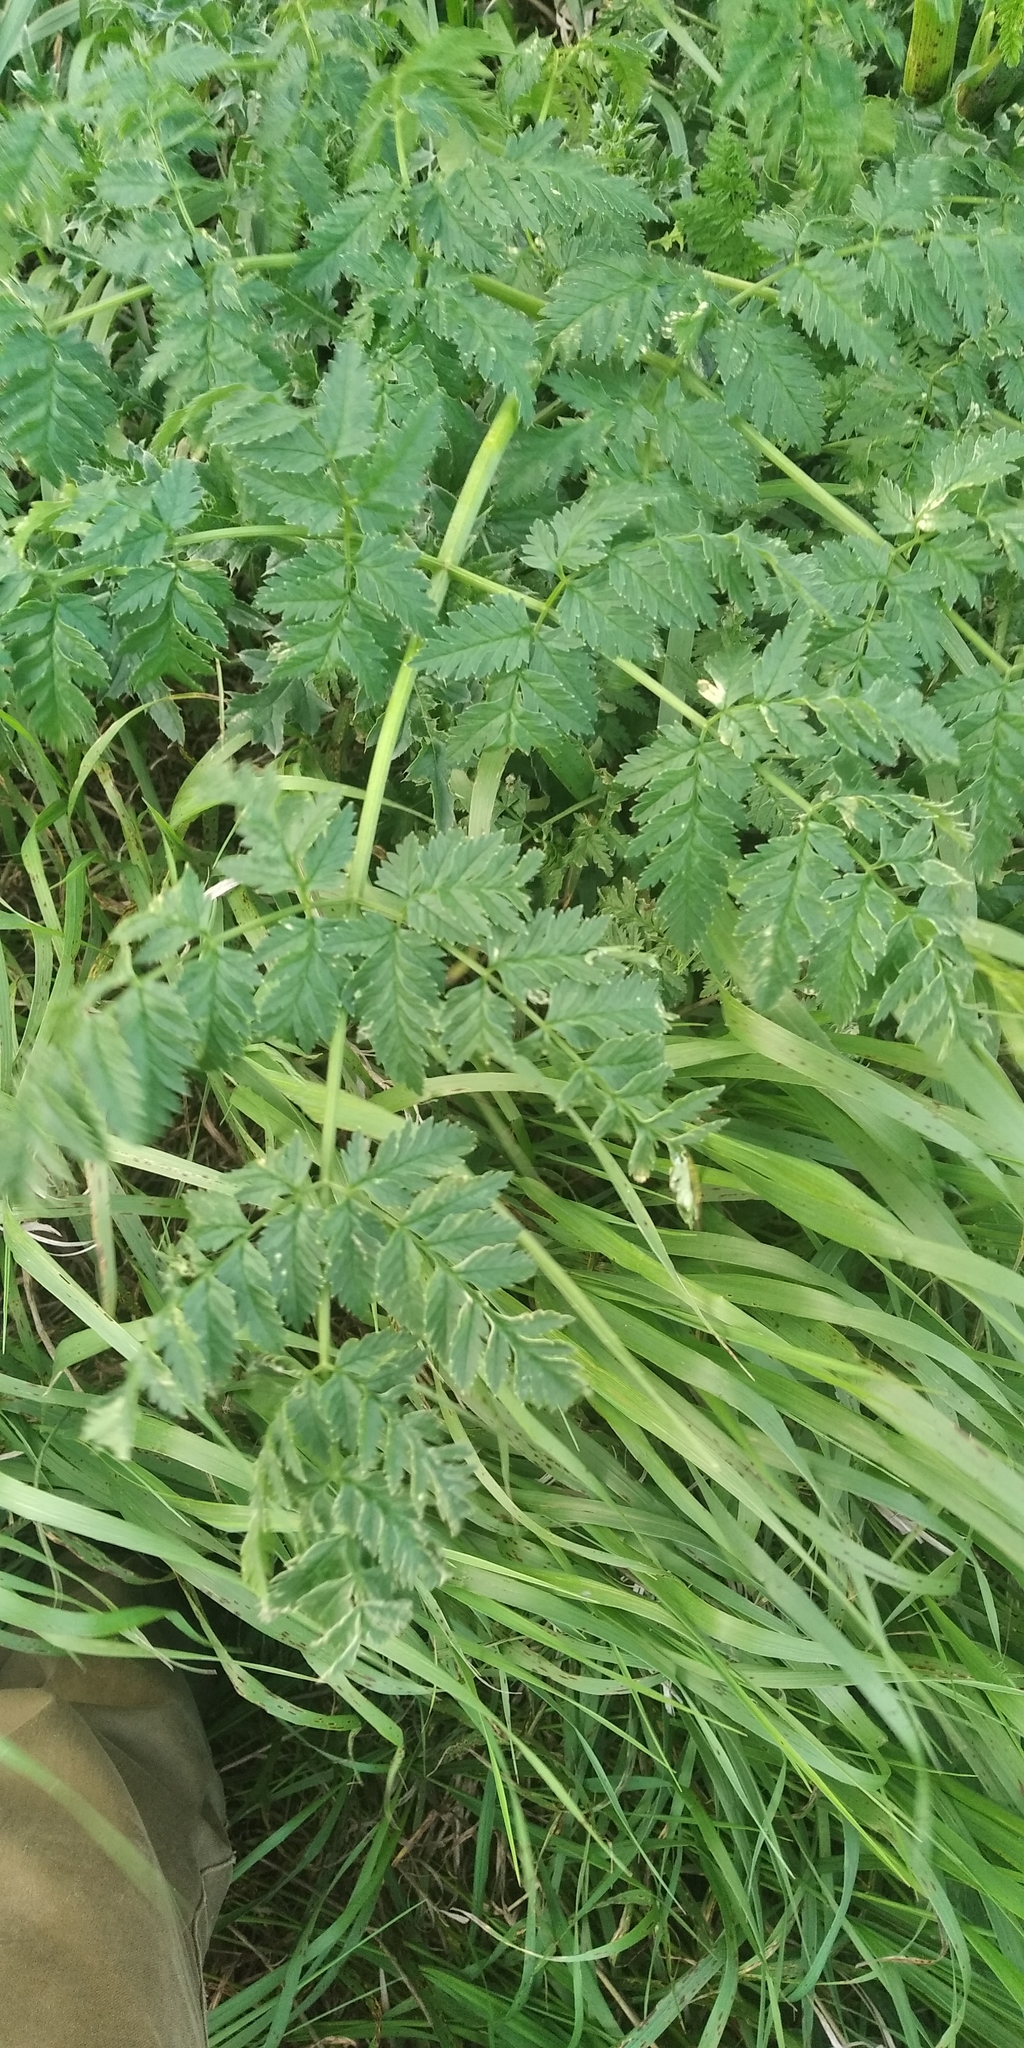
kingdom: Plantae
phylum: Tracheophyta
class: Magnoliopsida
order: Apiales
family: Apiaceae
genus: Conium
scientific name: Conium maculatum
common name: Hemlock
